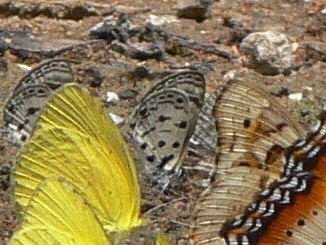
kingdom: Animalia
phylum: Arthropoda
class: Insecta
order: Lepidoptera
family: Lycaenidae
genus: Azanus
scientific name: Azanus mirza
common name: Mirza babul blue
